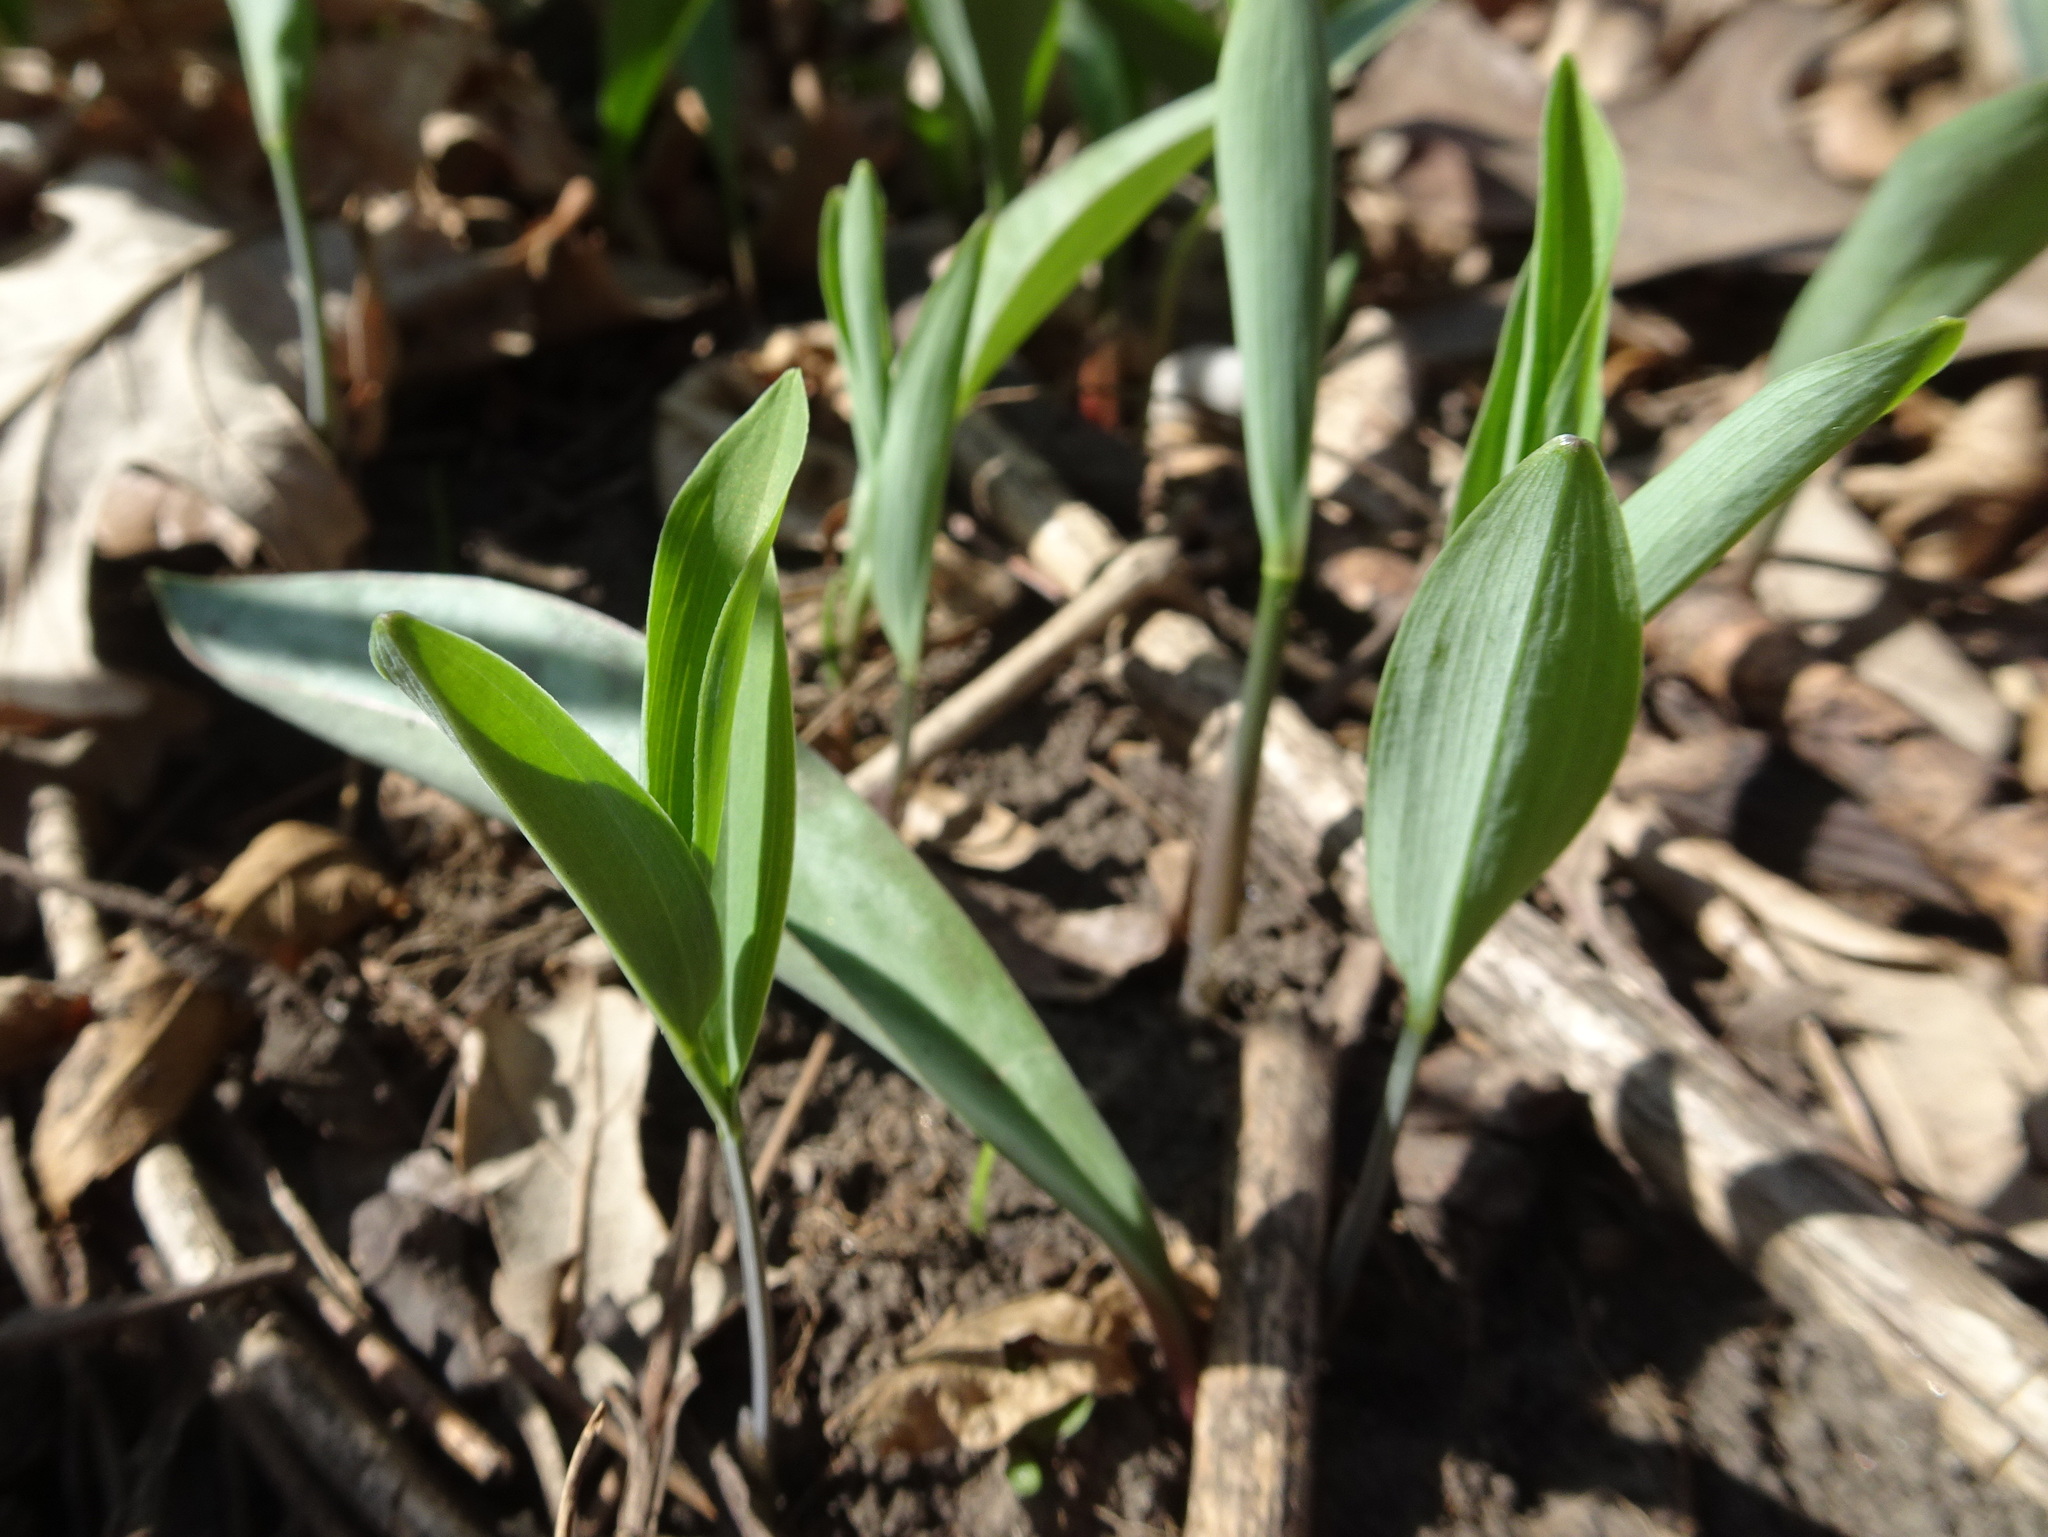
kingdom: Plantae
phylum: Tracheophyta
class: Liliopsida
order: Asparagales
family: Asparagaceae
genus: Polygonatum
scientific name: Polygonatum biflorum
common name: American solomon's-seal
